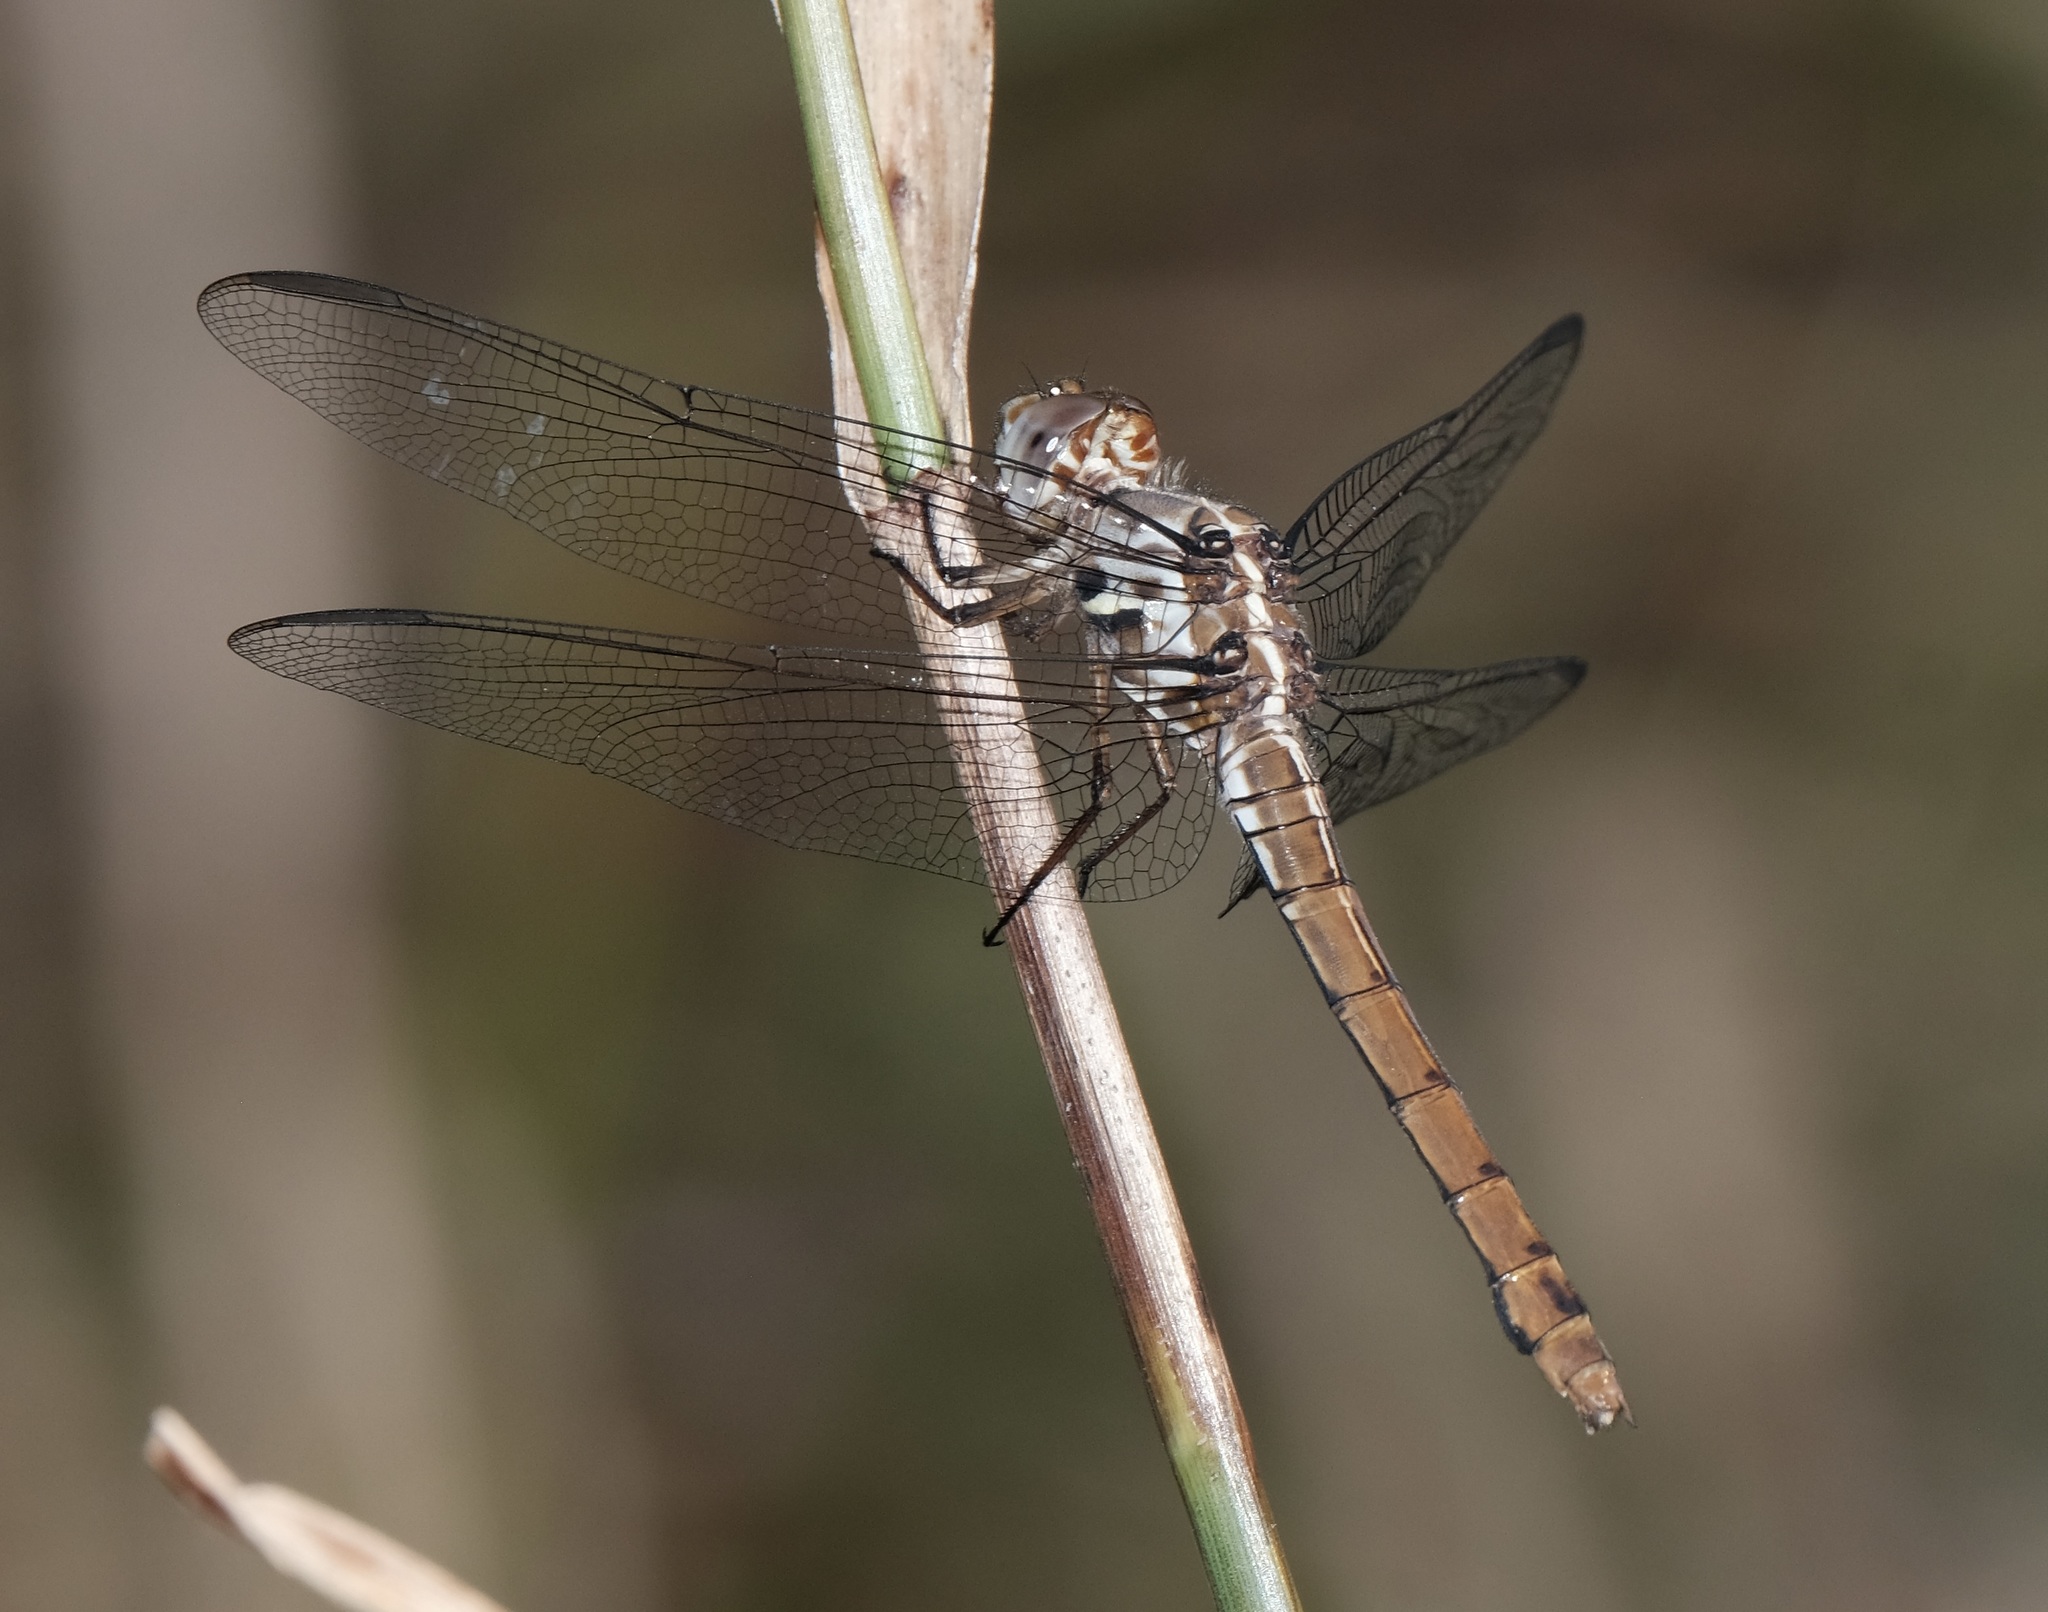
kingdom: Animalia
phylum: Arthropoda
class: Insecta
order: Odonata
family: Libellulidae
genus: Orthemis
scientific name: Orthemis ferruginea
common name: Roseate skimmer
